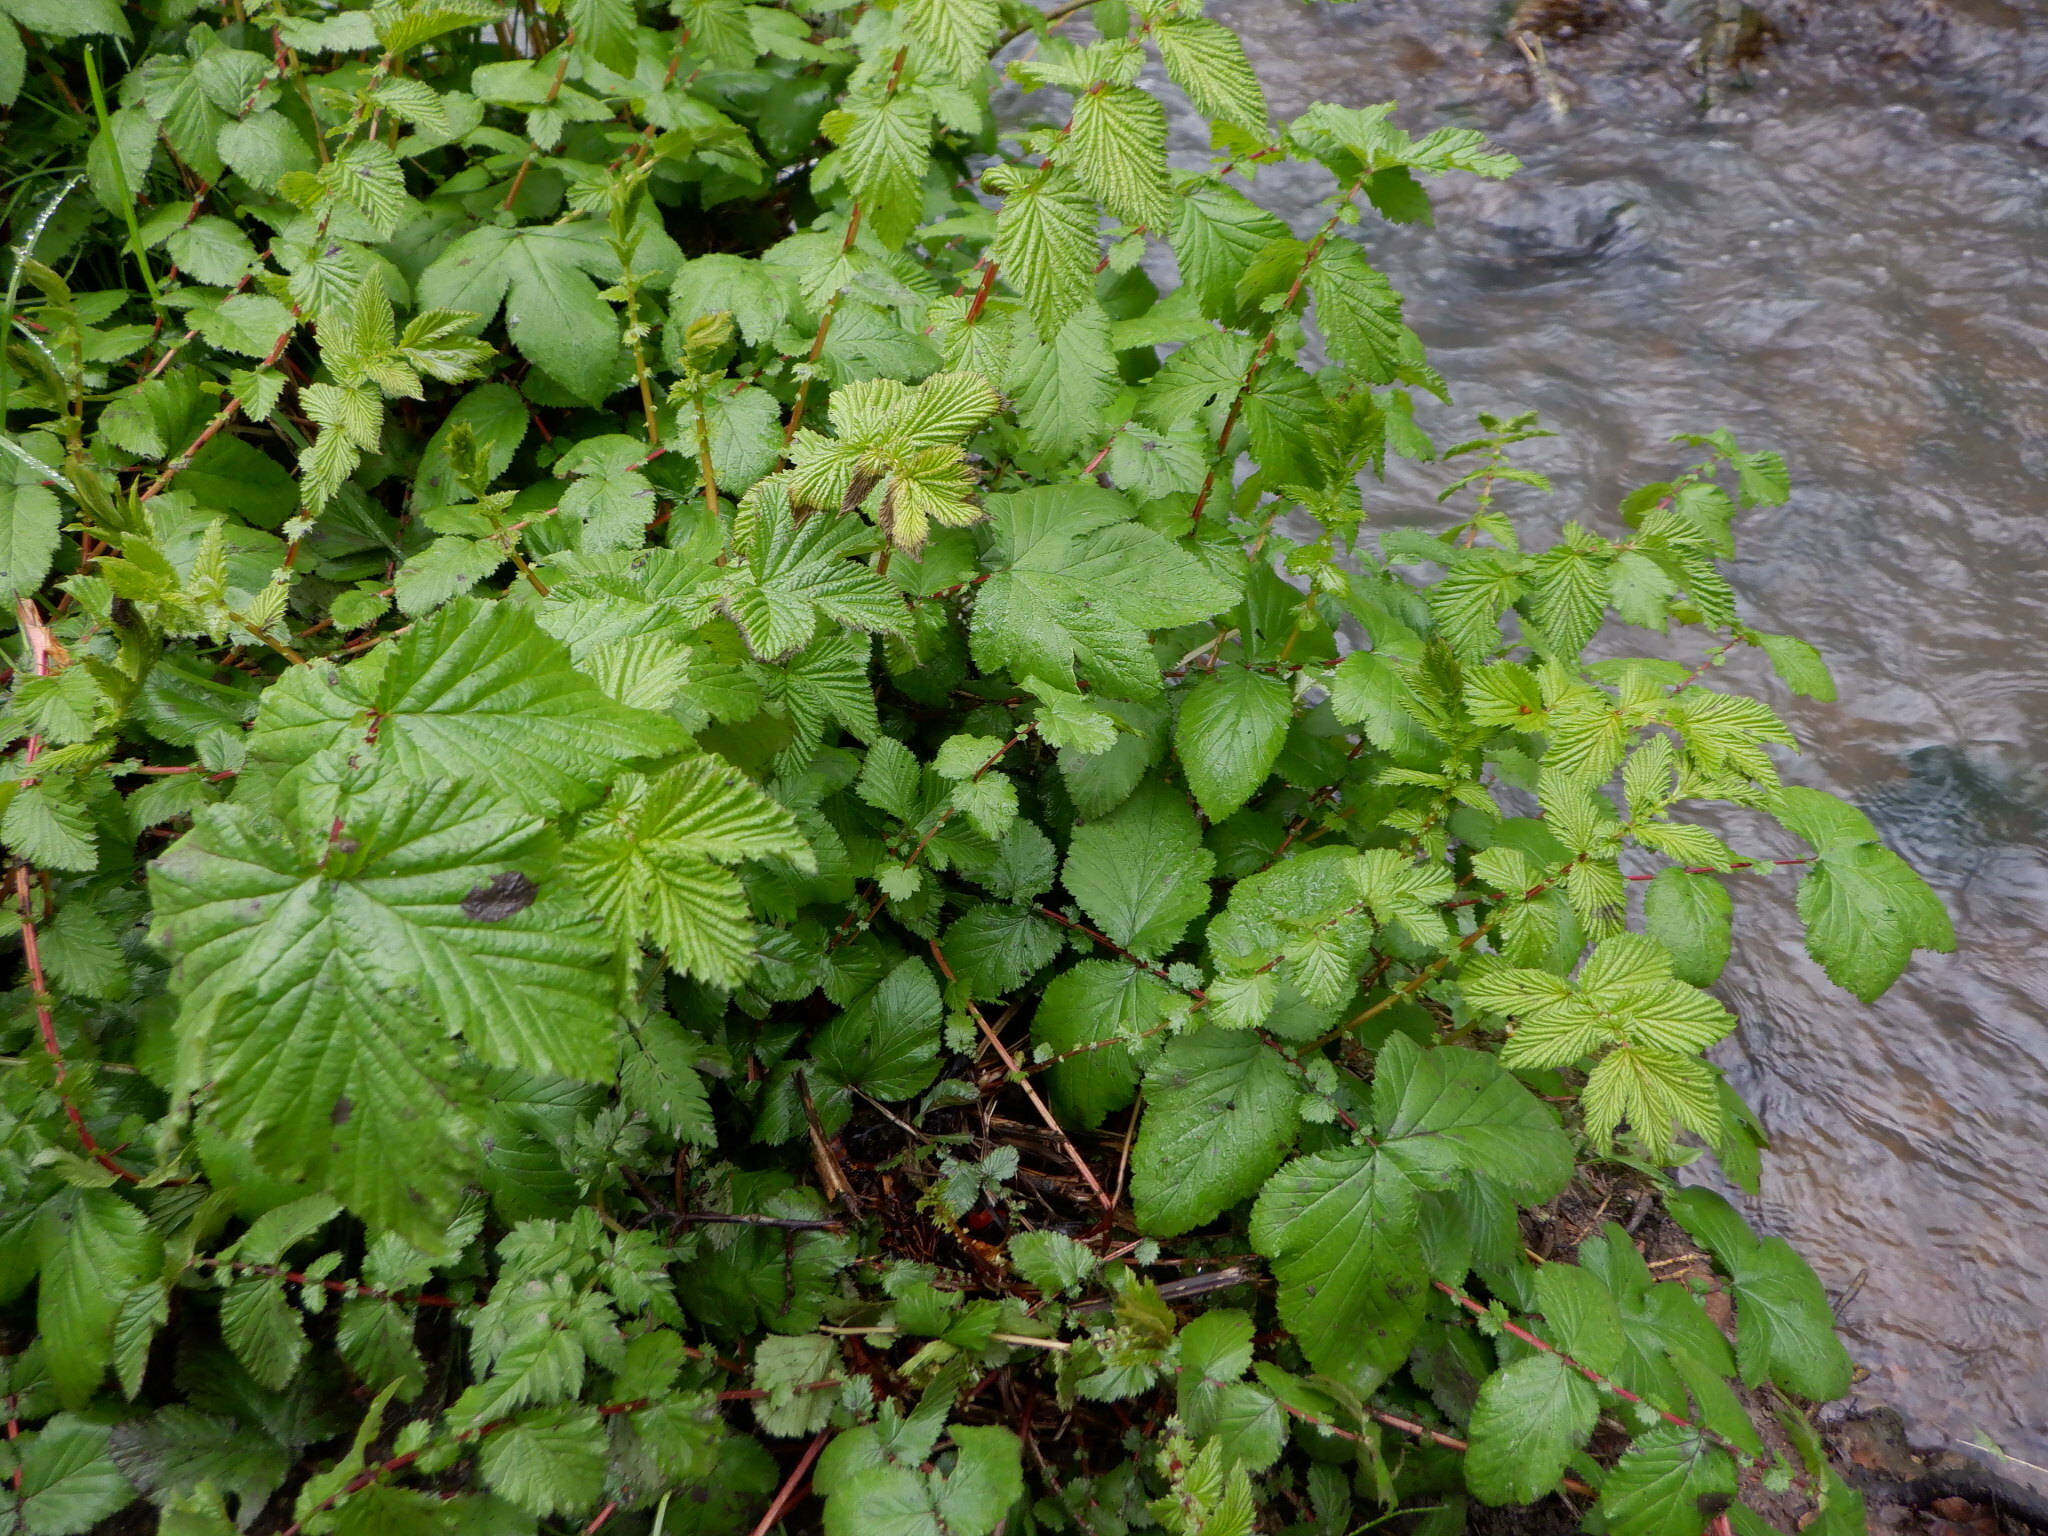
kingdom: Plantae
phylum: Tracheophyta
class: Magnoliopsida
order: Rosales
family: Rosaceae
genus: Filipendula
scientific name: Filipendula ulmaria
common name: Meadowsweet
